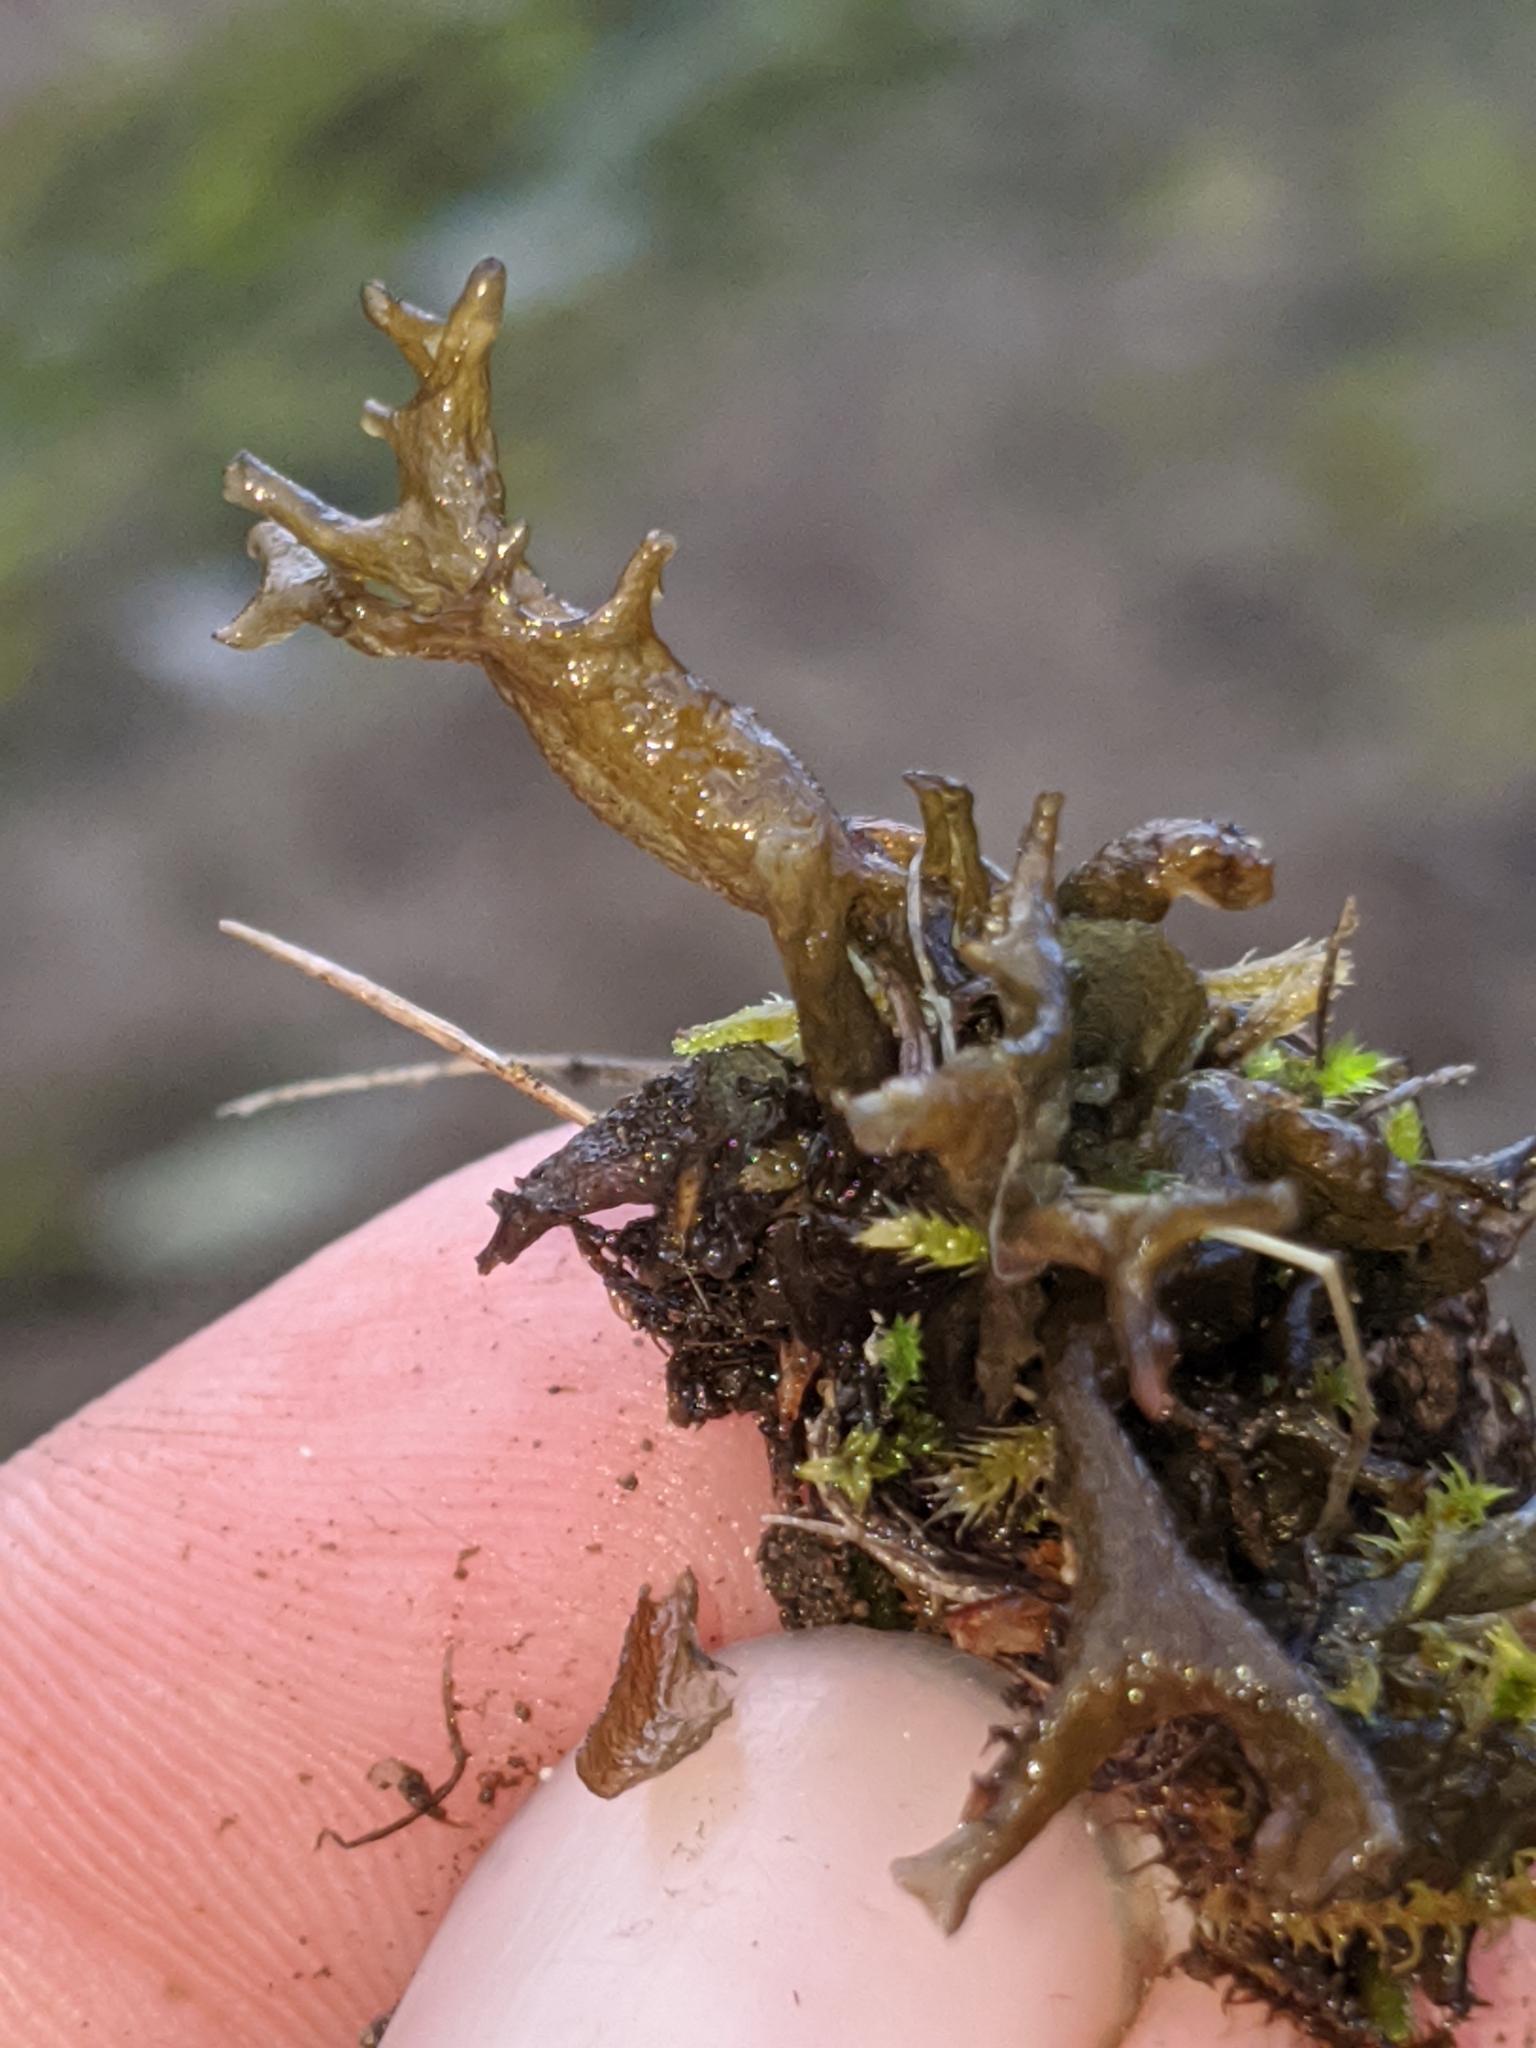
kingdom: Fungi
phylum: Ascomycota
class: Lecanoromycetes
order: Peltigerales
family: Collemataceae
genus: Scytinium
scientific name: Scytinium palmatum
